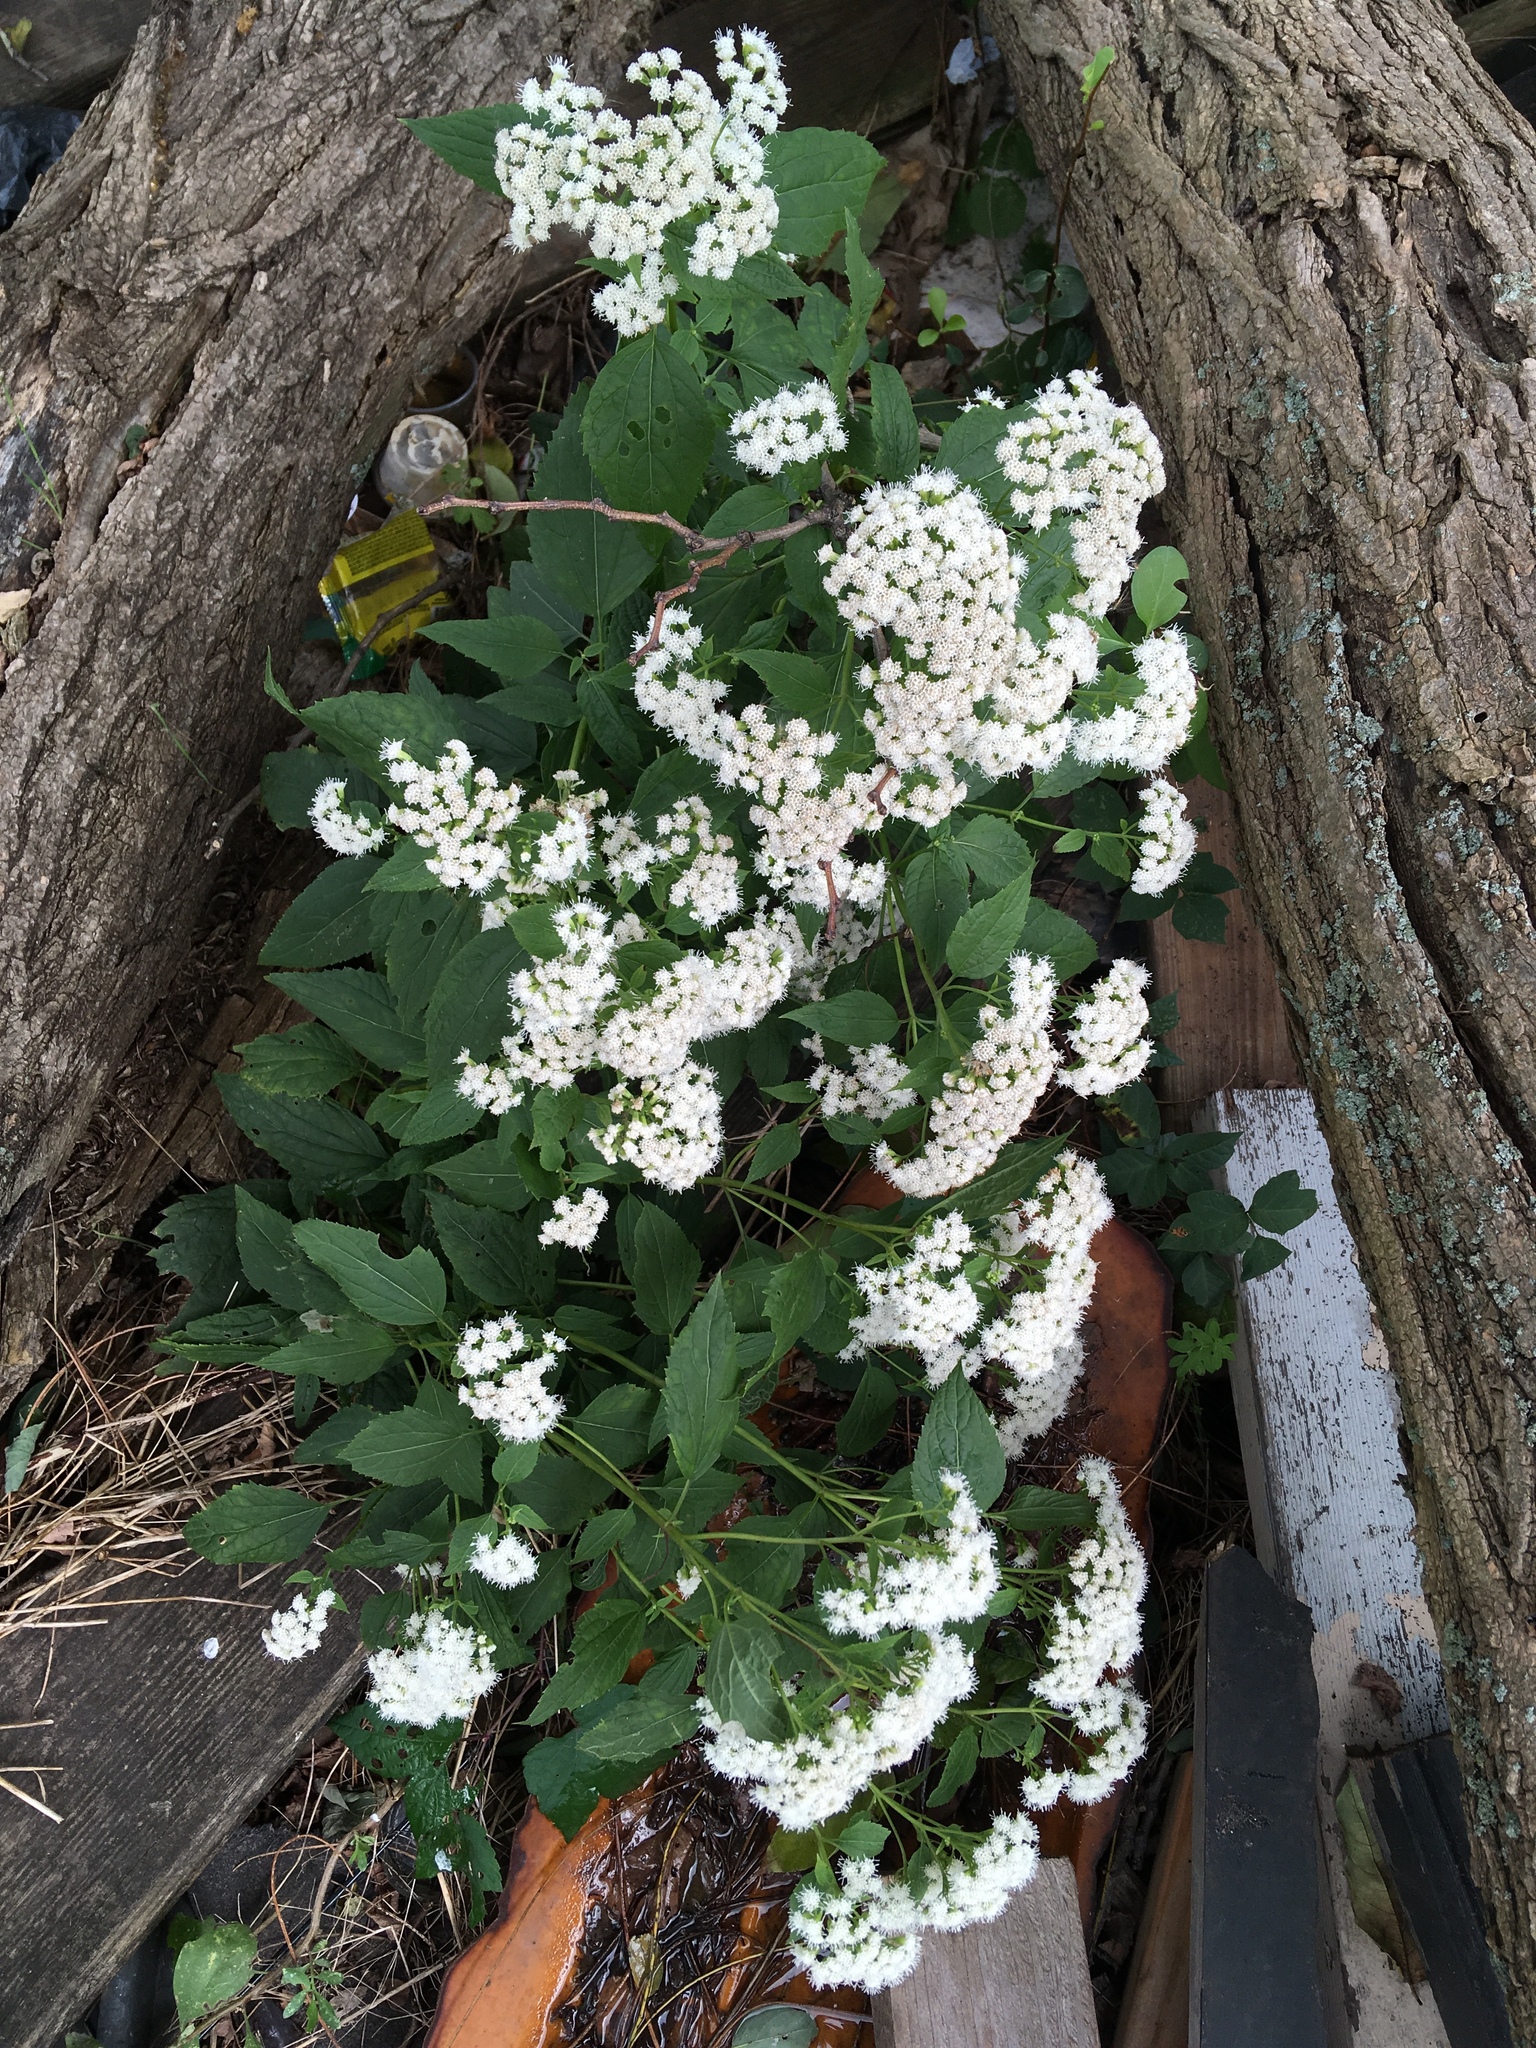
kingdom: Plantae
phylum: Tracheophyta
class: Magnoliopsida
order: Asterales
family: Asteraceae
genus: Ageratina
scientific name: Ageratina altissima
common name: White snakeroot
